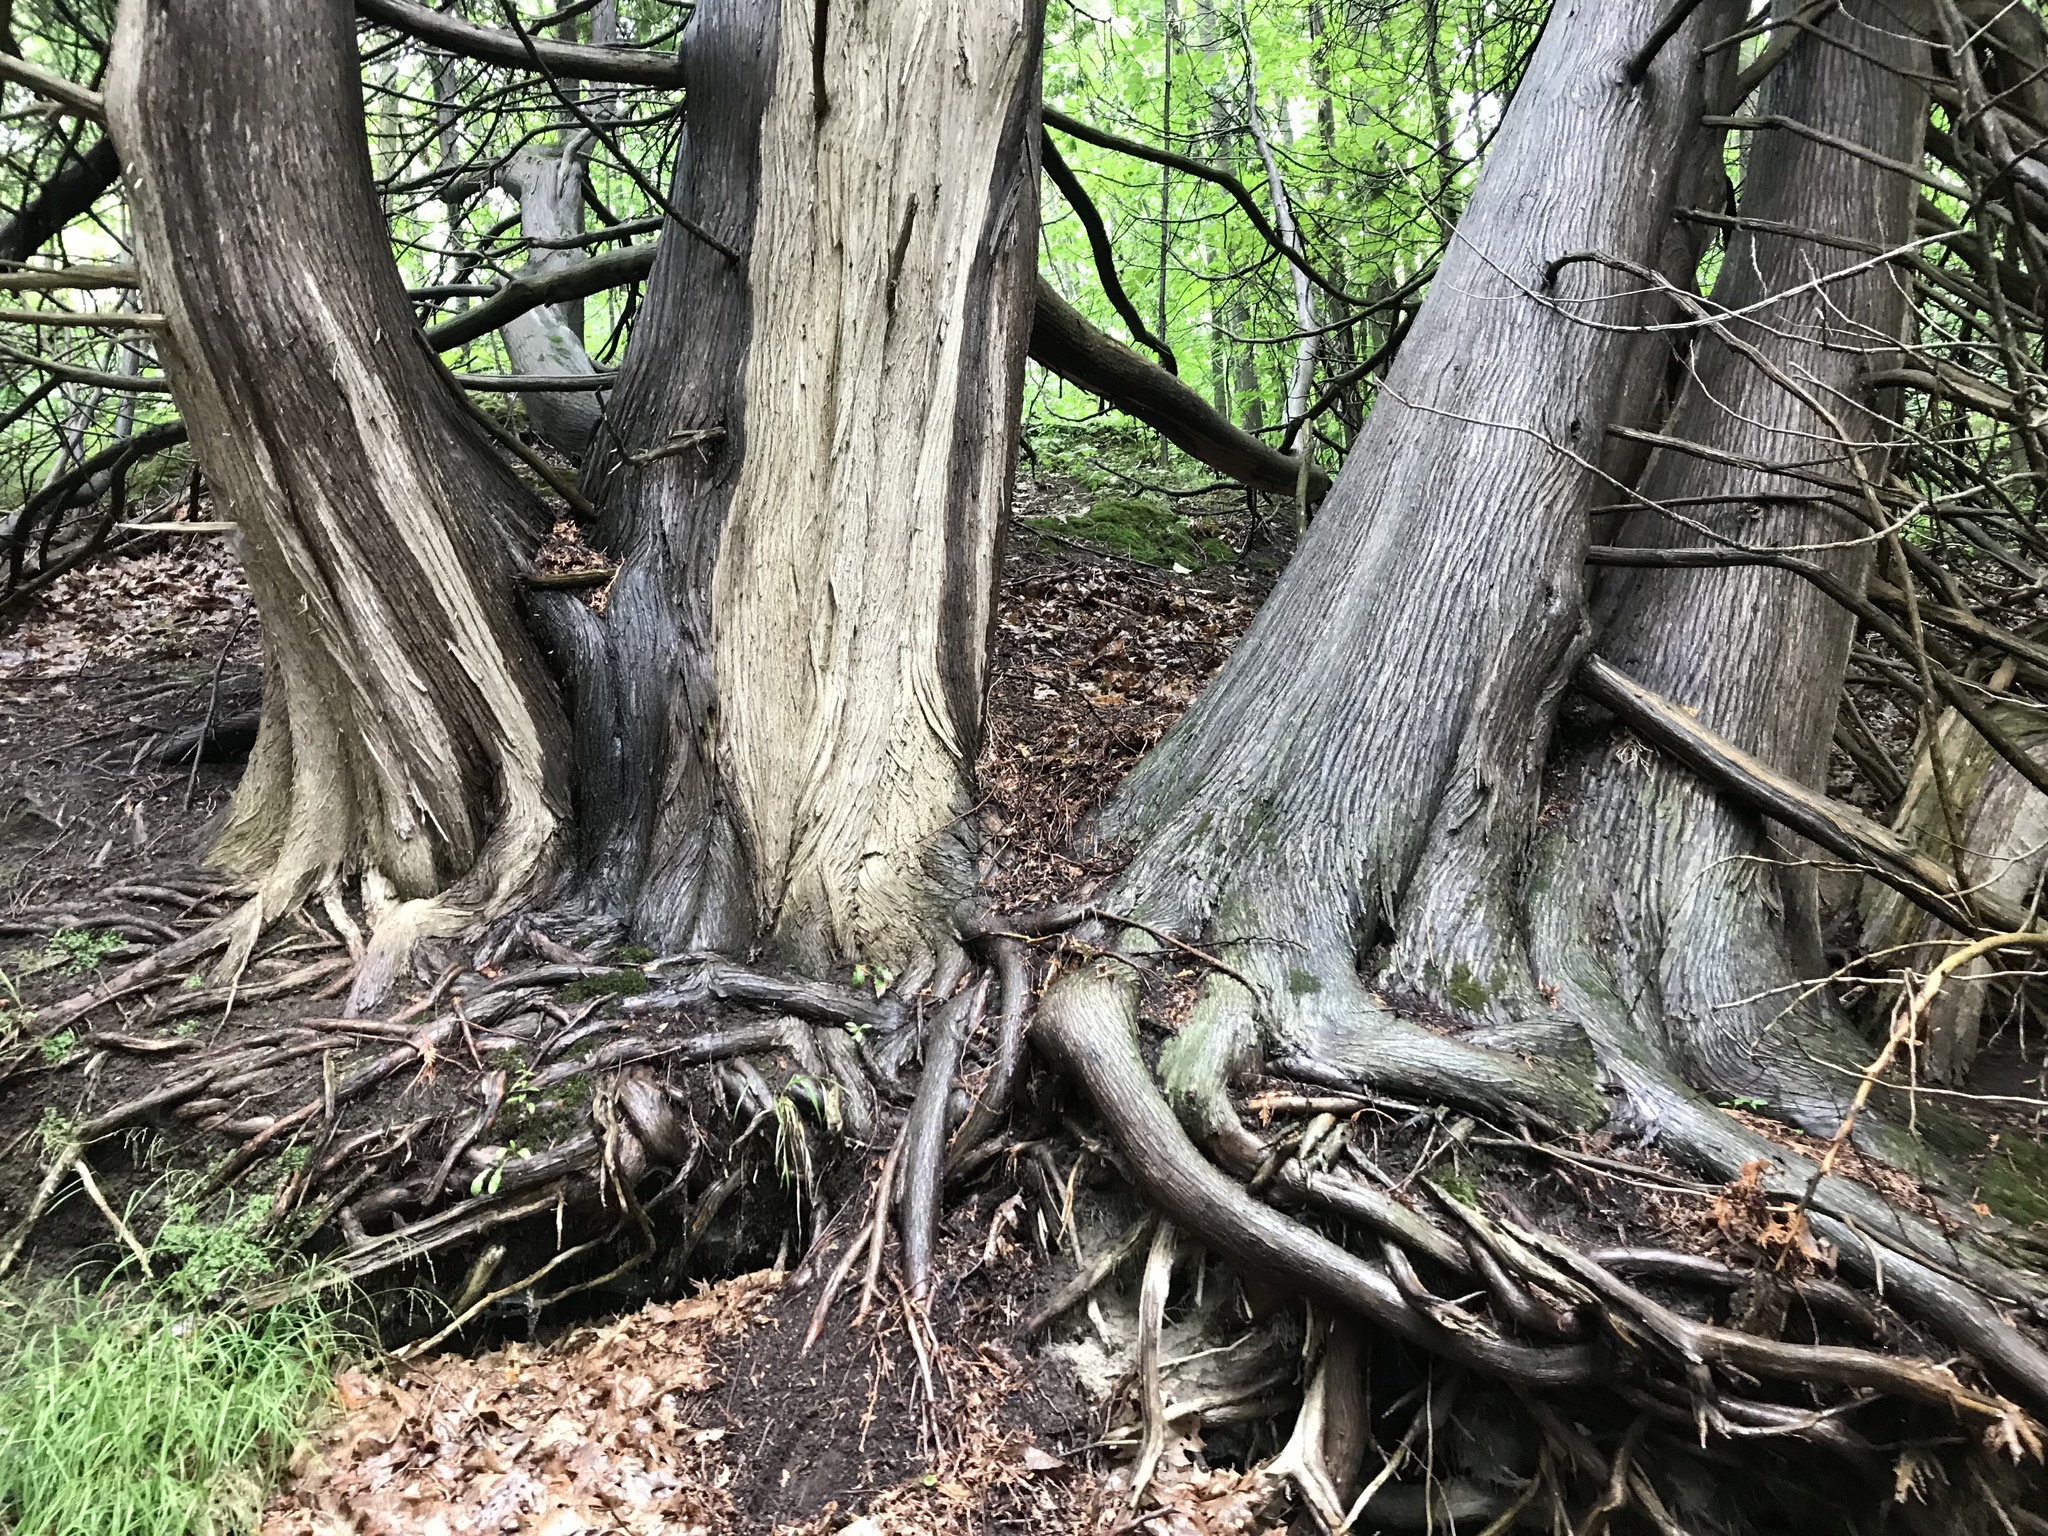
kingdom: Plantae
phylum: Tracheophyta
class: Pinopsida
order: Pinales
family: Cupressaceae
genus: Thuja
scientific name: Thuja occidentalis
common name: Northern white-cedar
